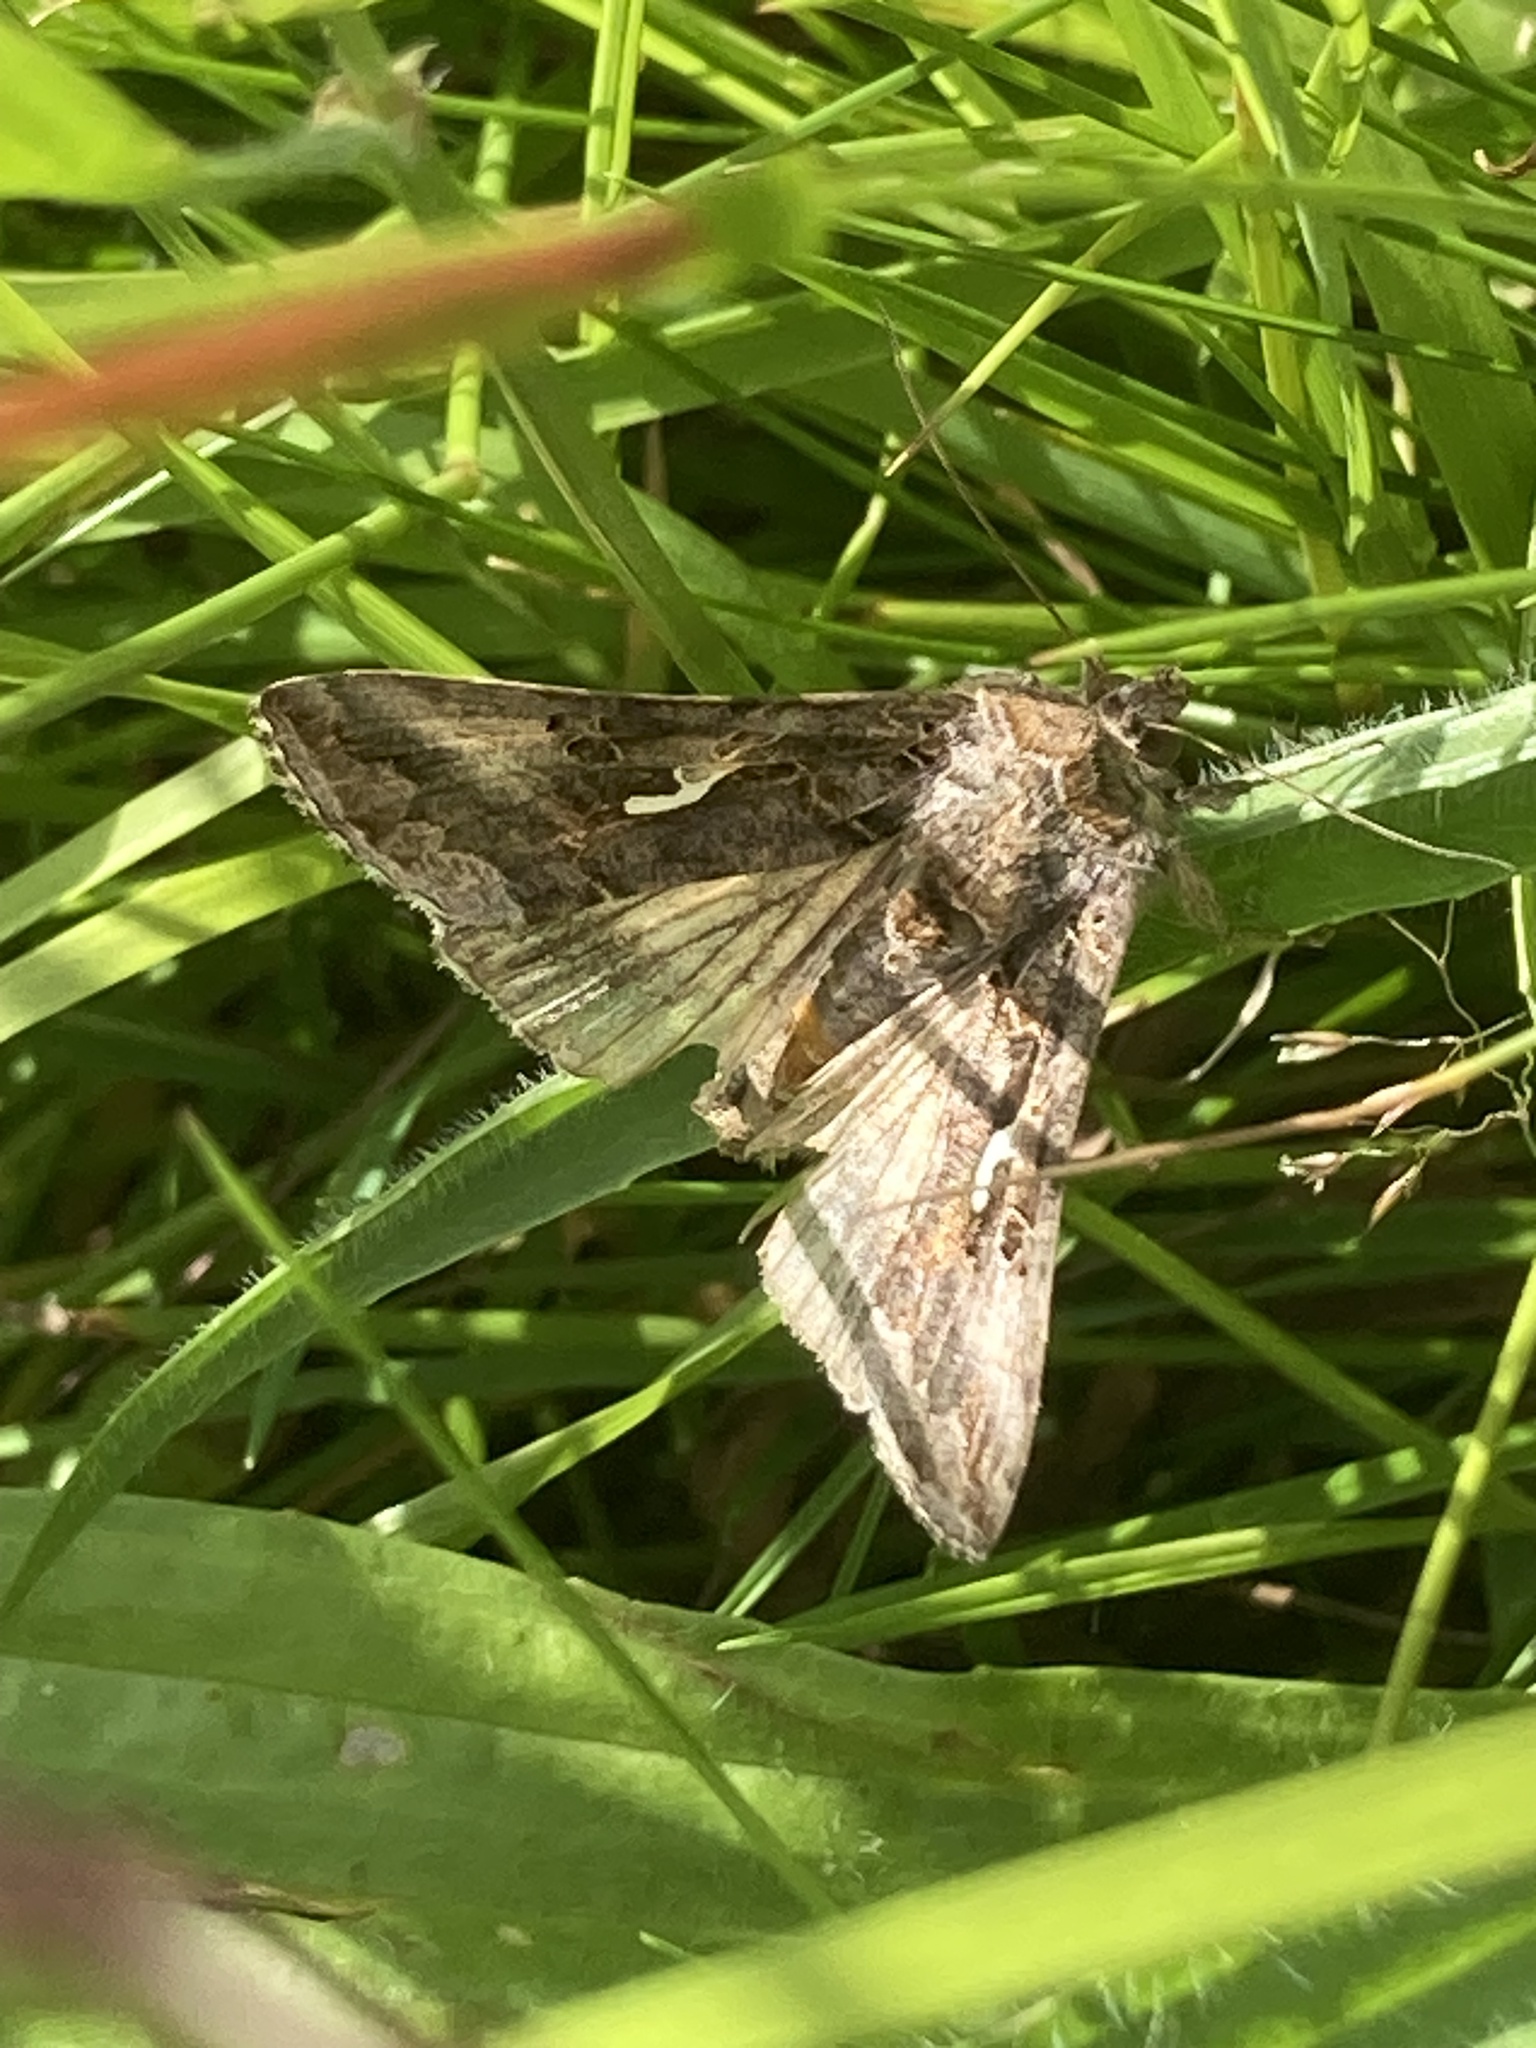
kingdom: Animalia
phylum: Arthropoda
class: Insecta
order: Lepidoptera
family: Noctuidae
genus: Autographa
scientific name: Autographa gamma
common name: Silver y
